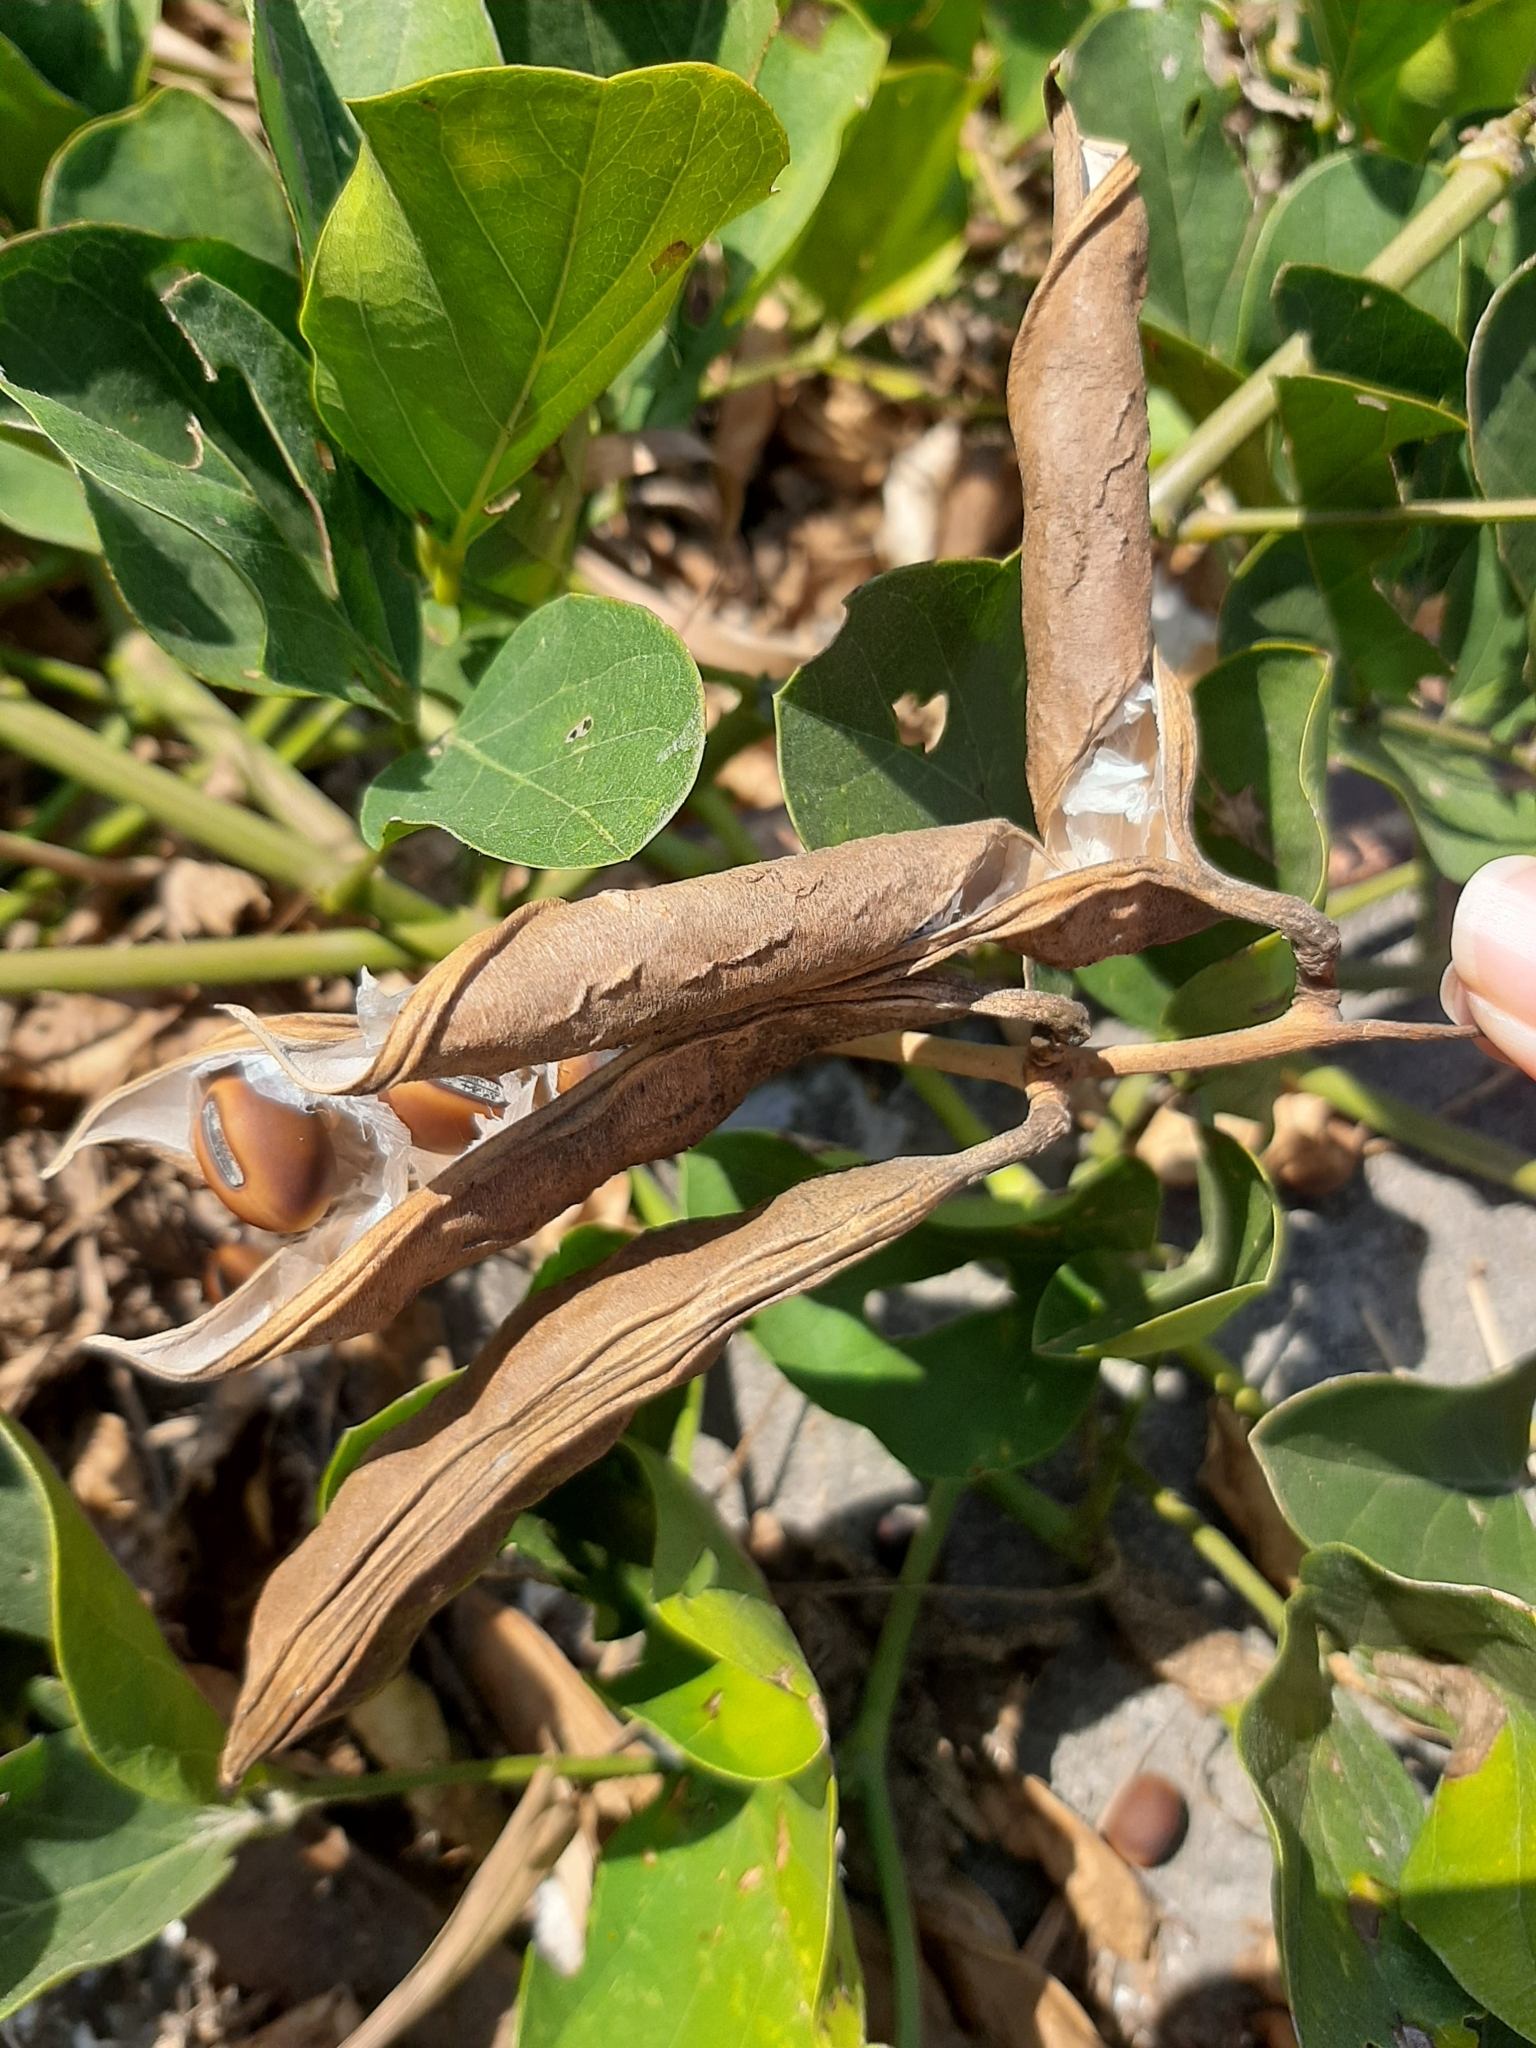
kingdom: Plantae
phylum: Tracheophyta
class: Magnoliopsida
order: Fabales
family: Fabaceae
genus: Canavalia
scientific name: Canavalia rosea
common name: Beach-bean
